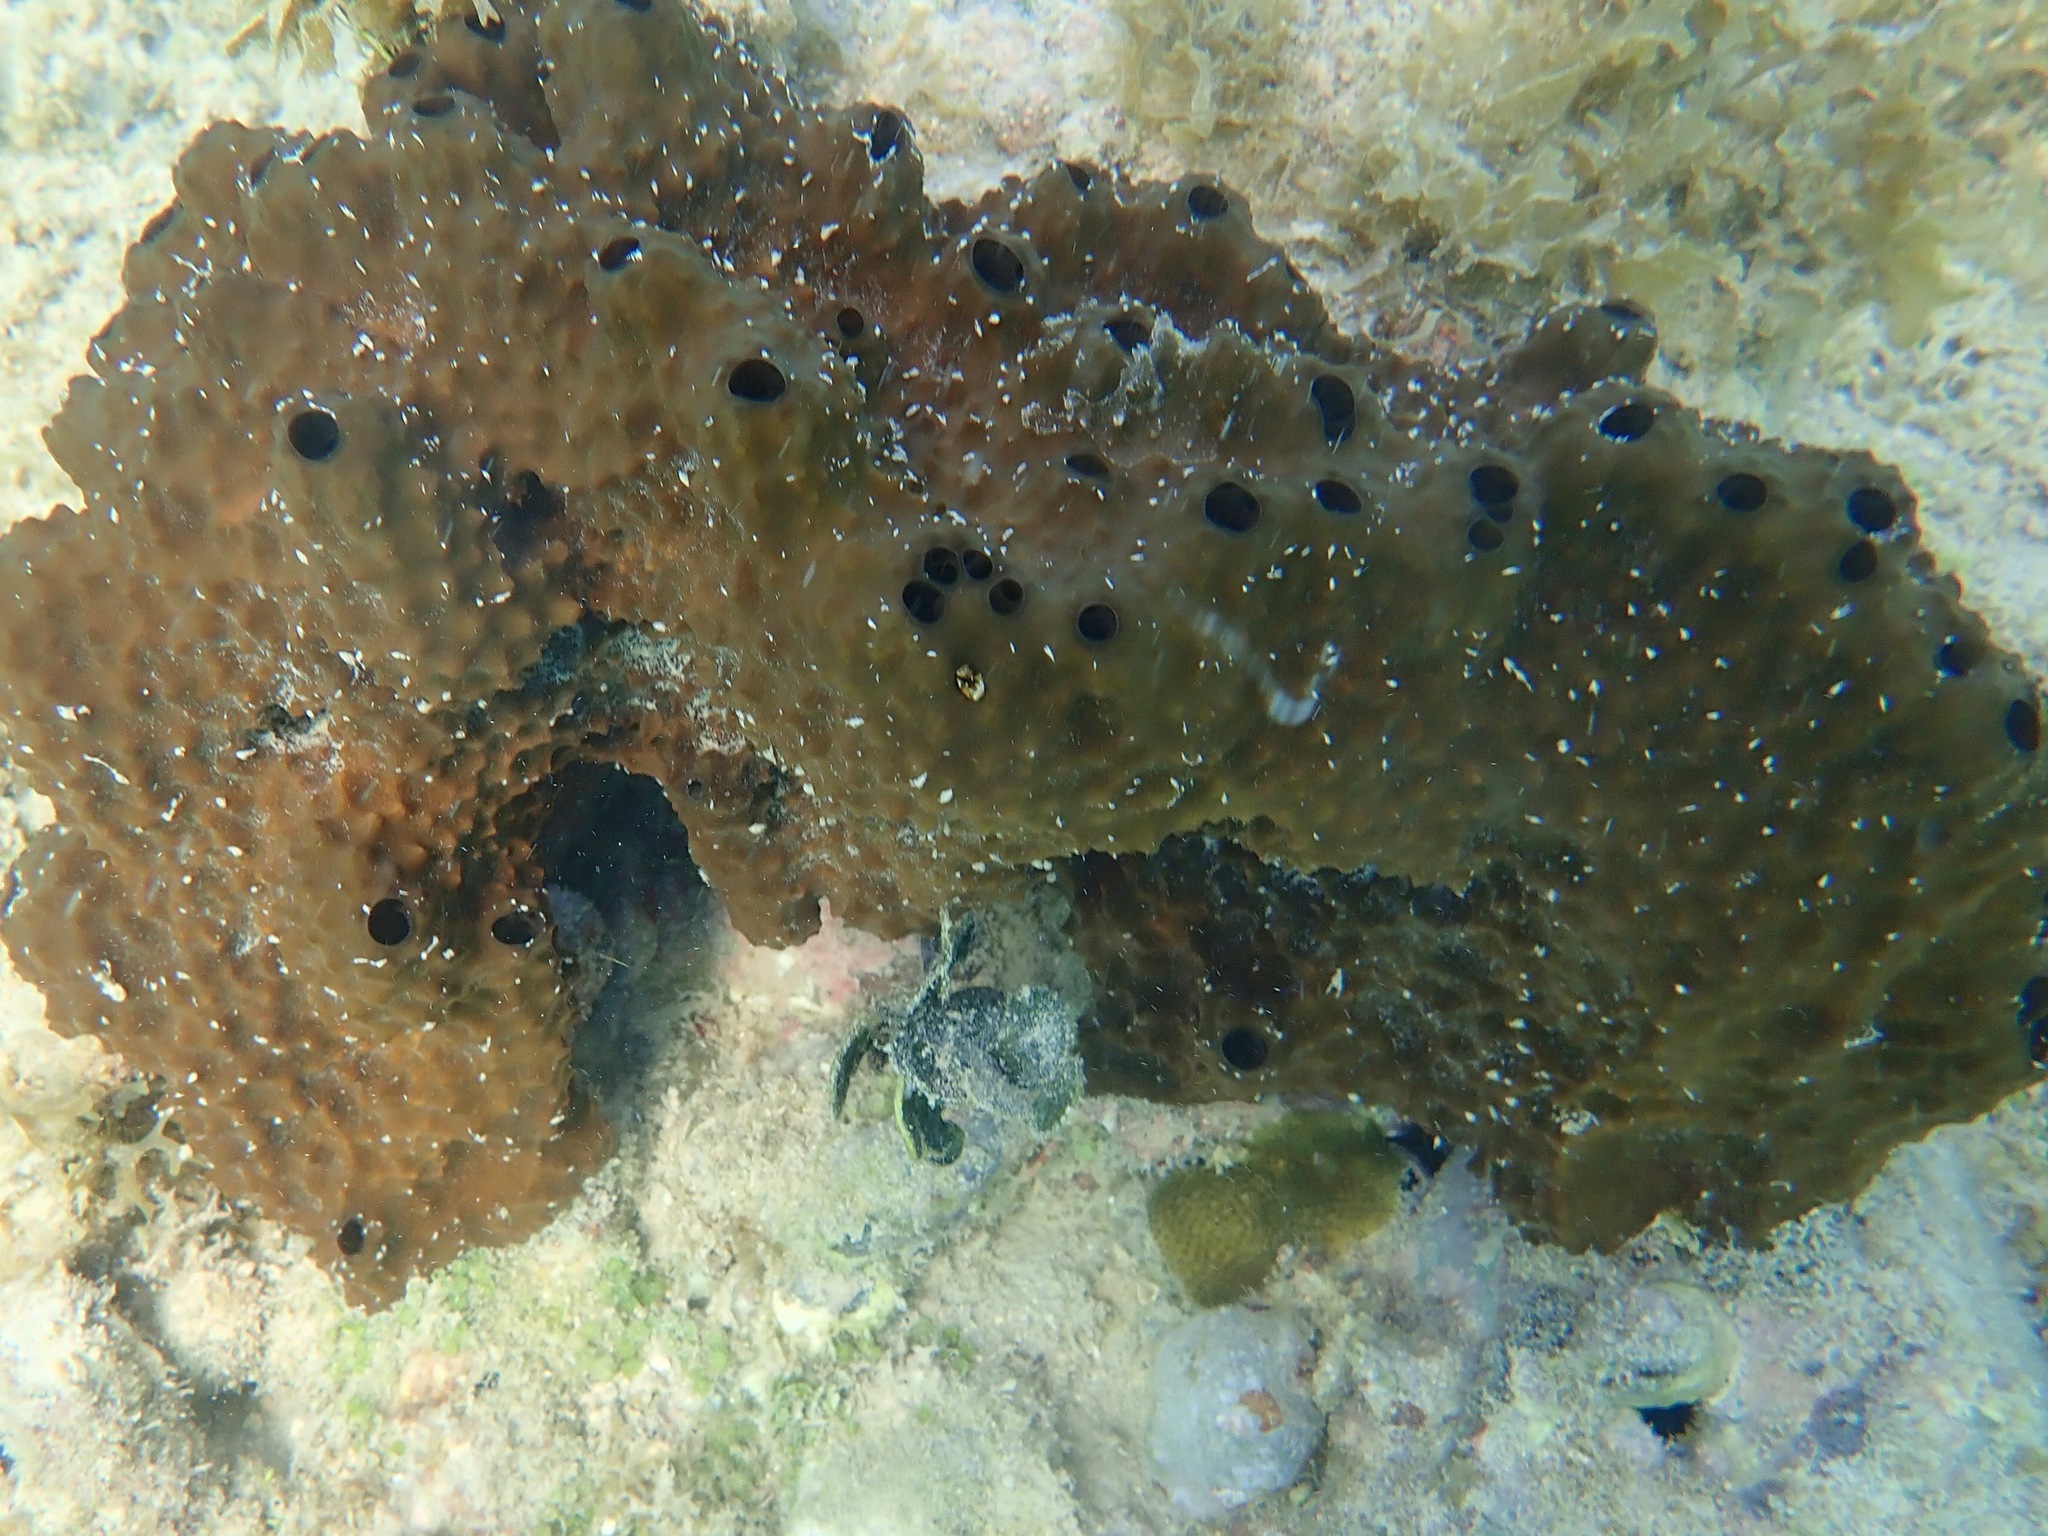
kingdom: Animalia
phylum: Porifera
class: Demospongiae
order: Dictyoceratida
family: Irciniidae
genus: Ircinia
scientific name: Ircinia felix
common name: Stinker sponge
